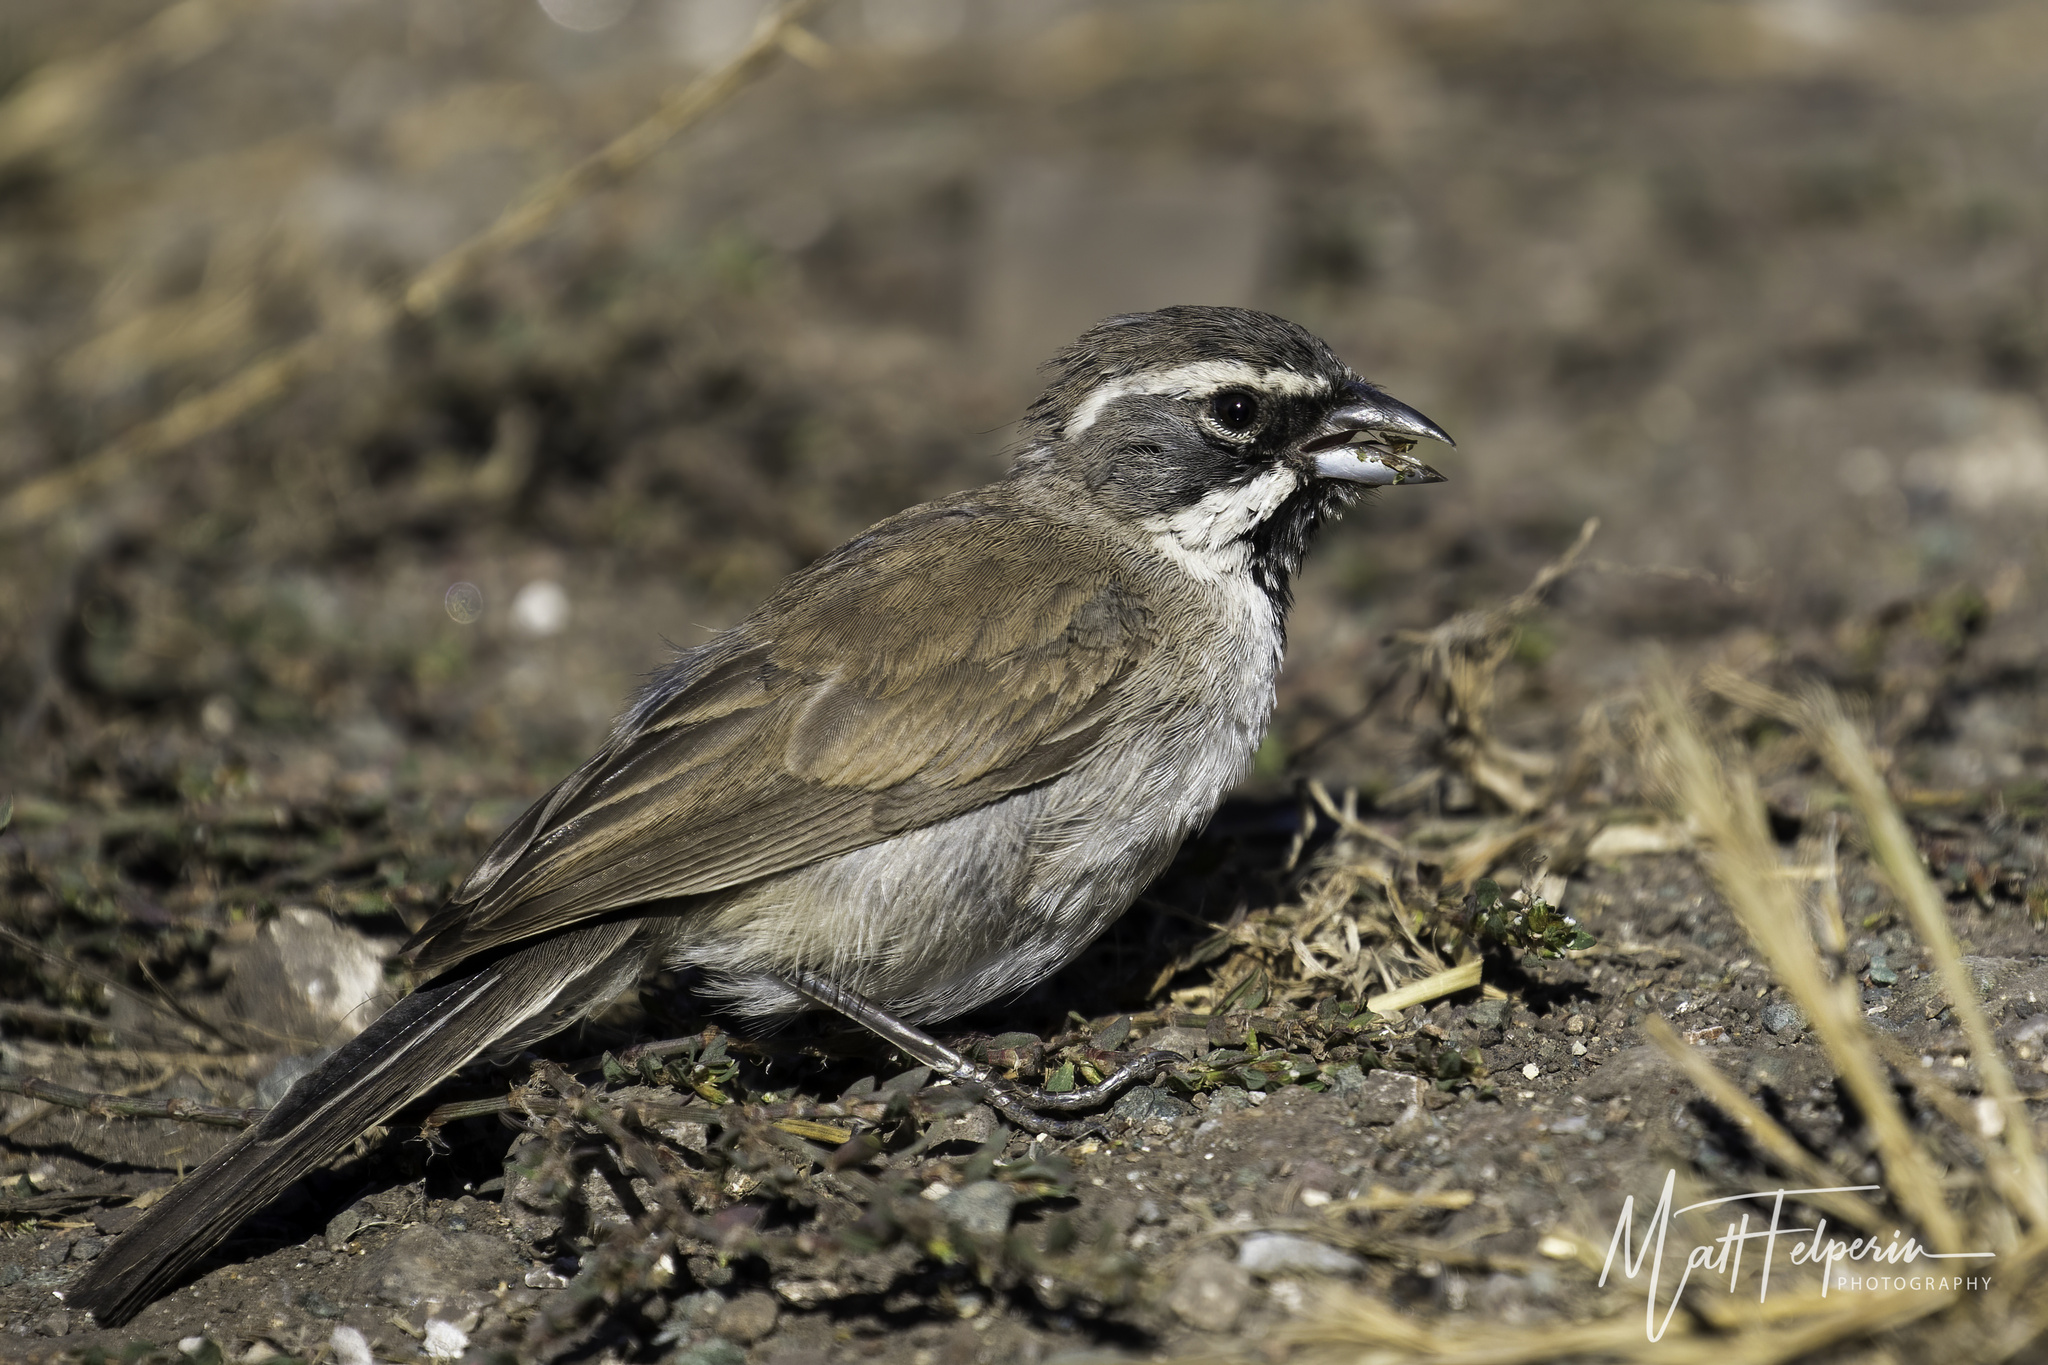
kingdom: Animalia
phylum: Chordata
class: Aves
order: Passeriformes
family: Passerellidae
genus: Amphispiza
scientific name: Amphispiza bilineata
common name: Black-throated sparrow
